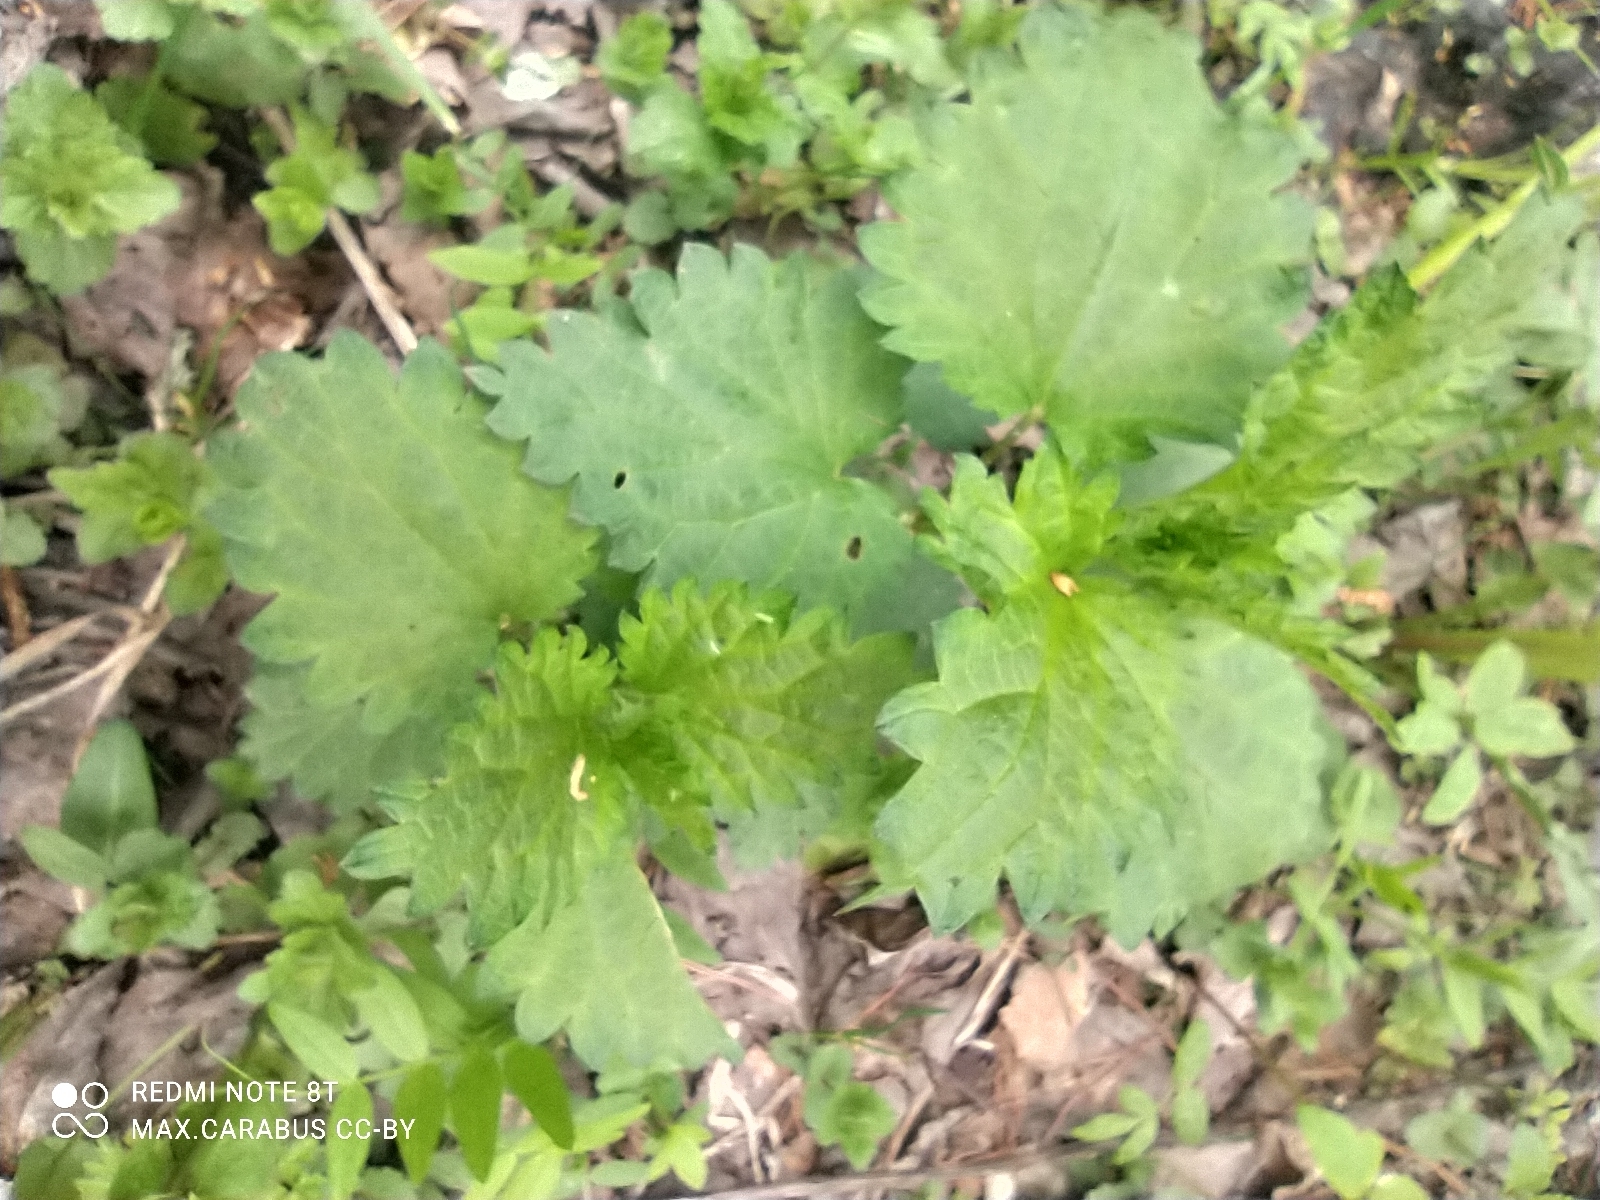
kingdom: Plantae
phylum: Tracheophyta
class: Magnoliopsida
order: Rosales
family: Urticaceae
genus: Urtica
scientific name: Urtica dioica
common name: Common nettle
